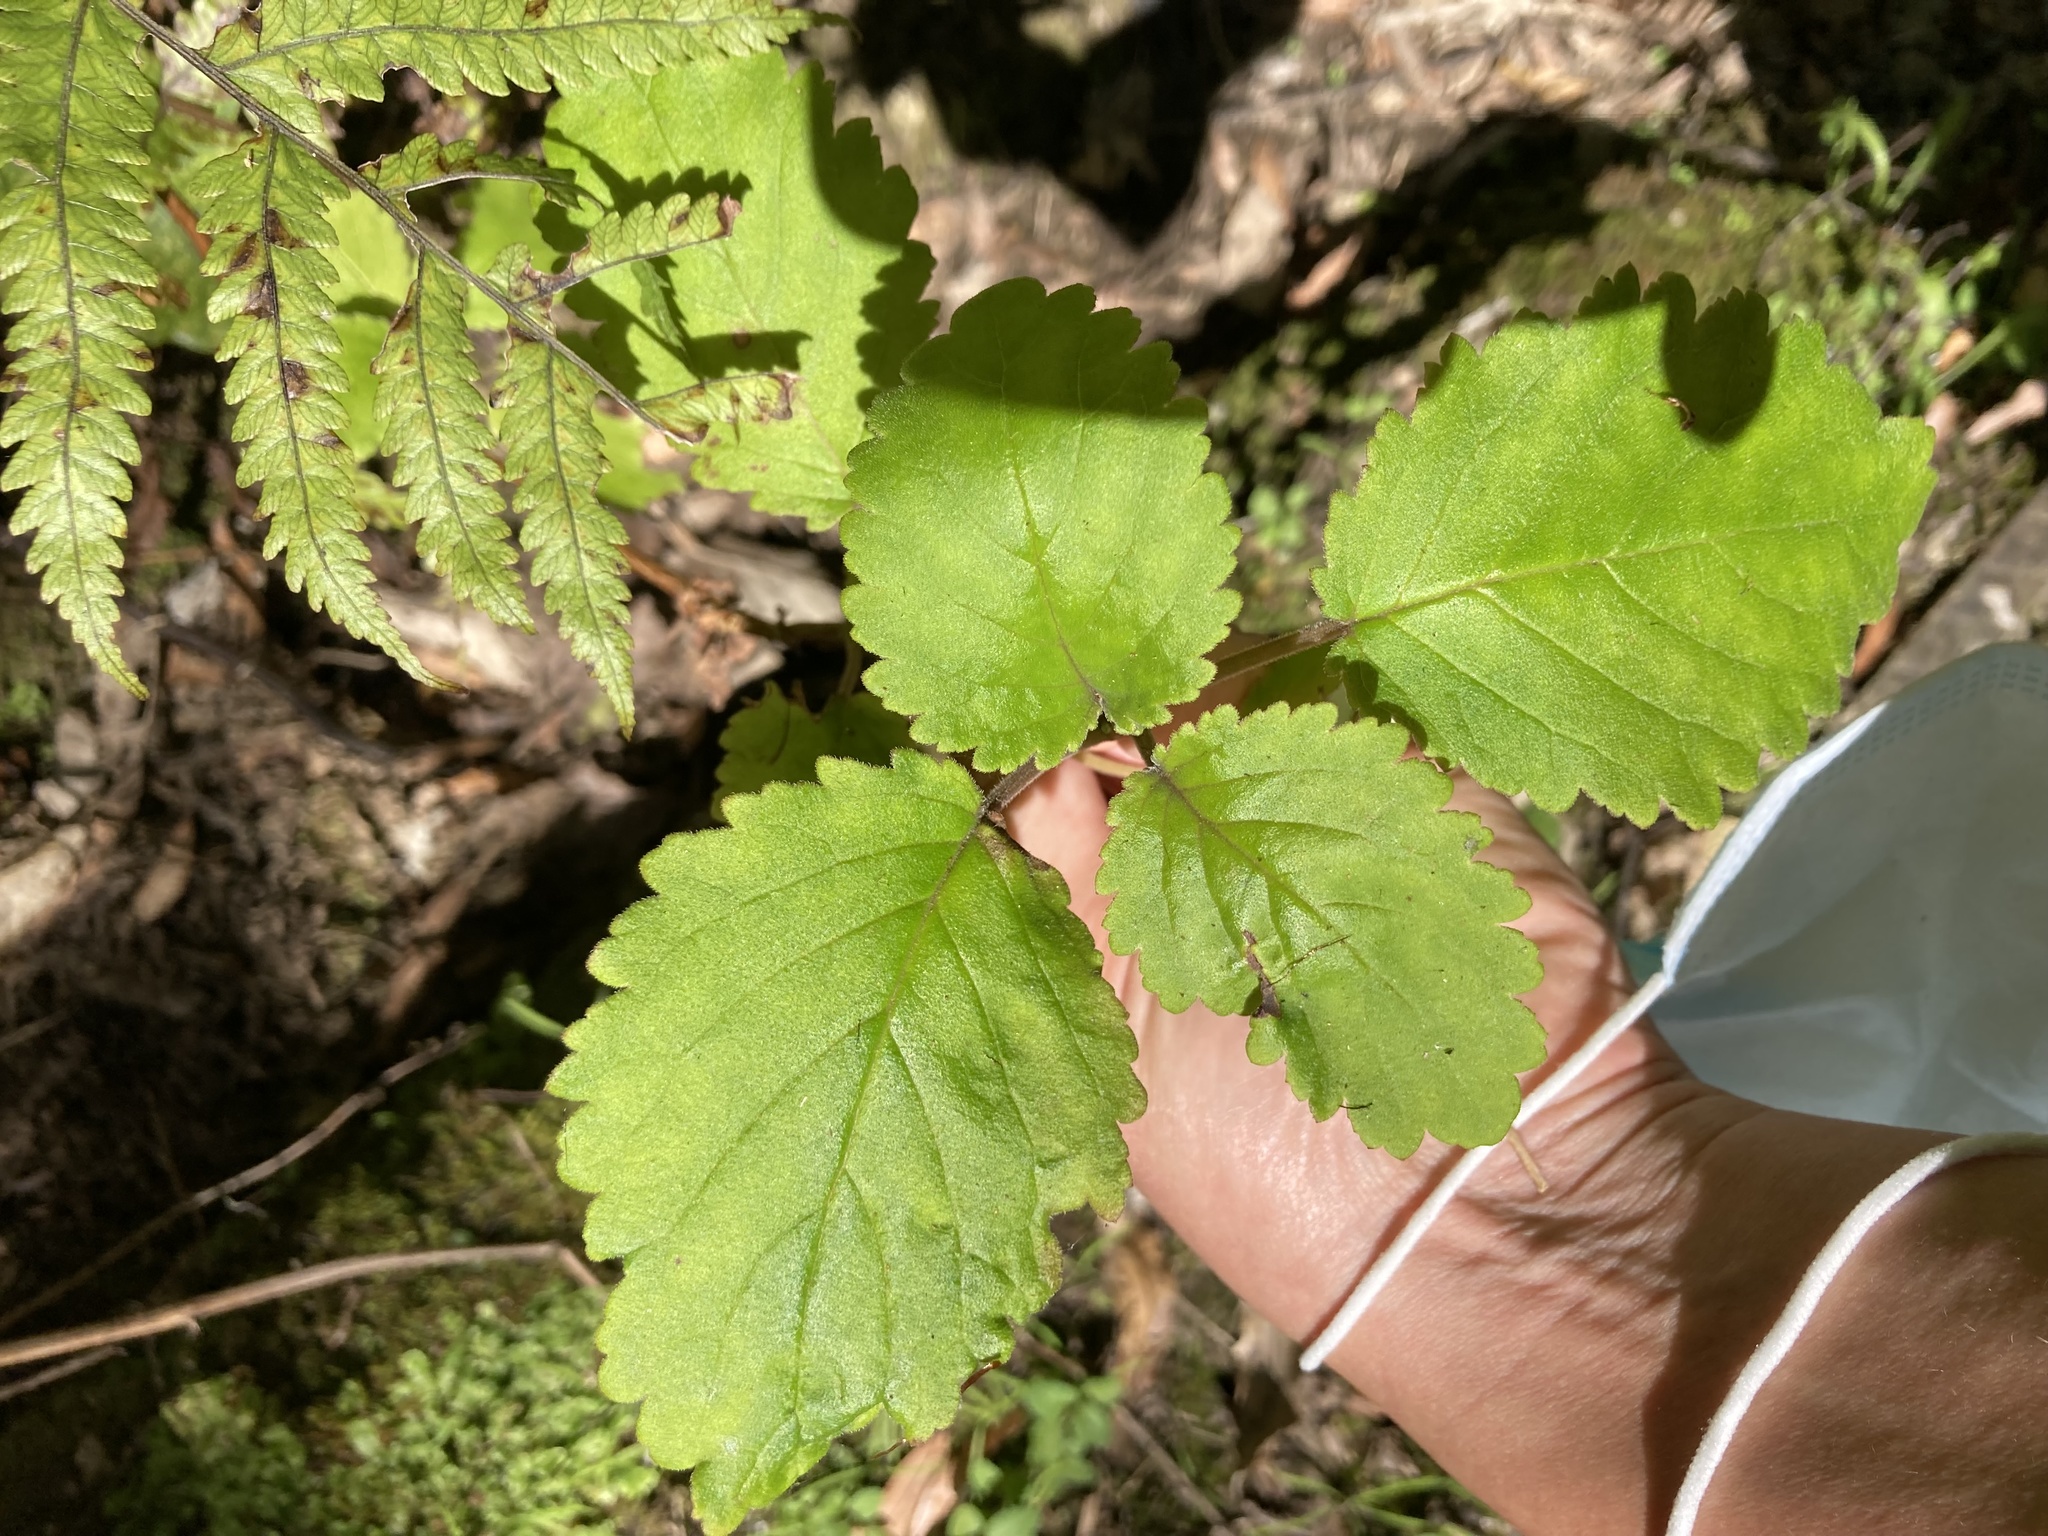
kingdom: Plantae
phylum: Tracheophyta
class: Magnoliopsida
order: Lamiales
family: Calceolariaceae
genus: Jovellana
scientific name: Jovellana sinclairii
